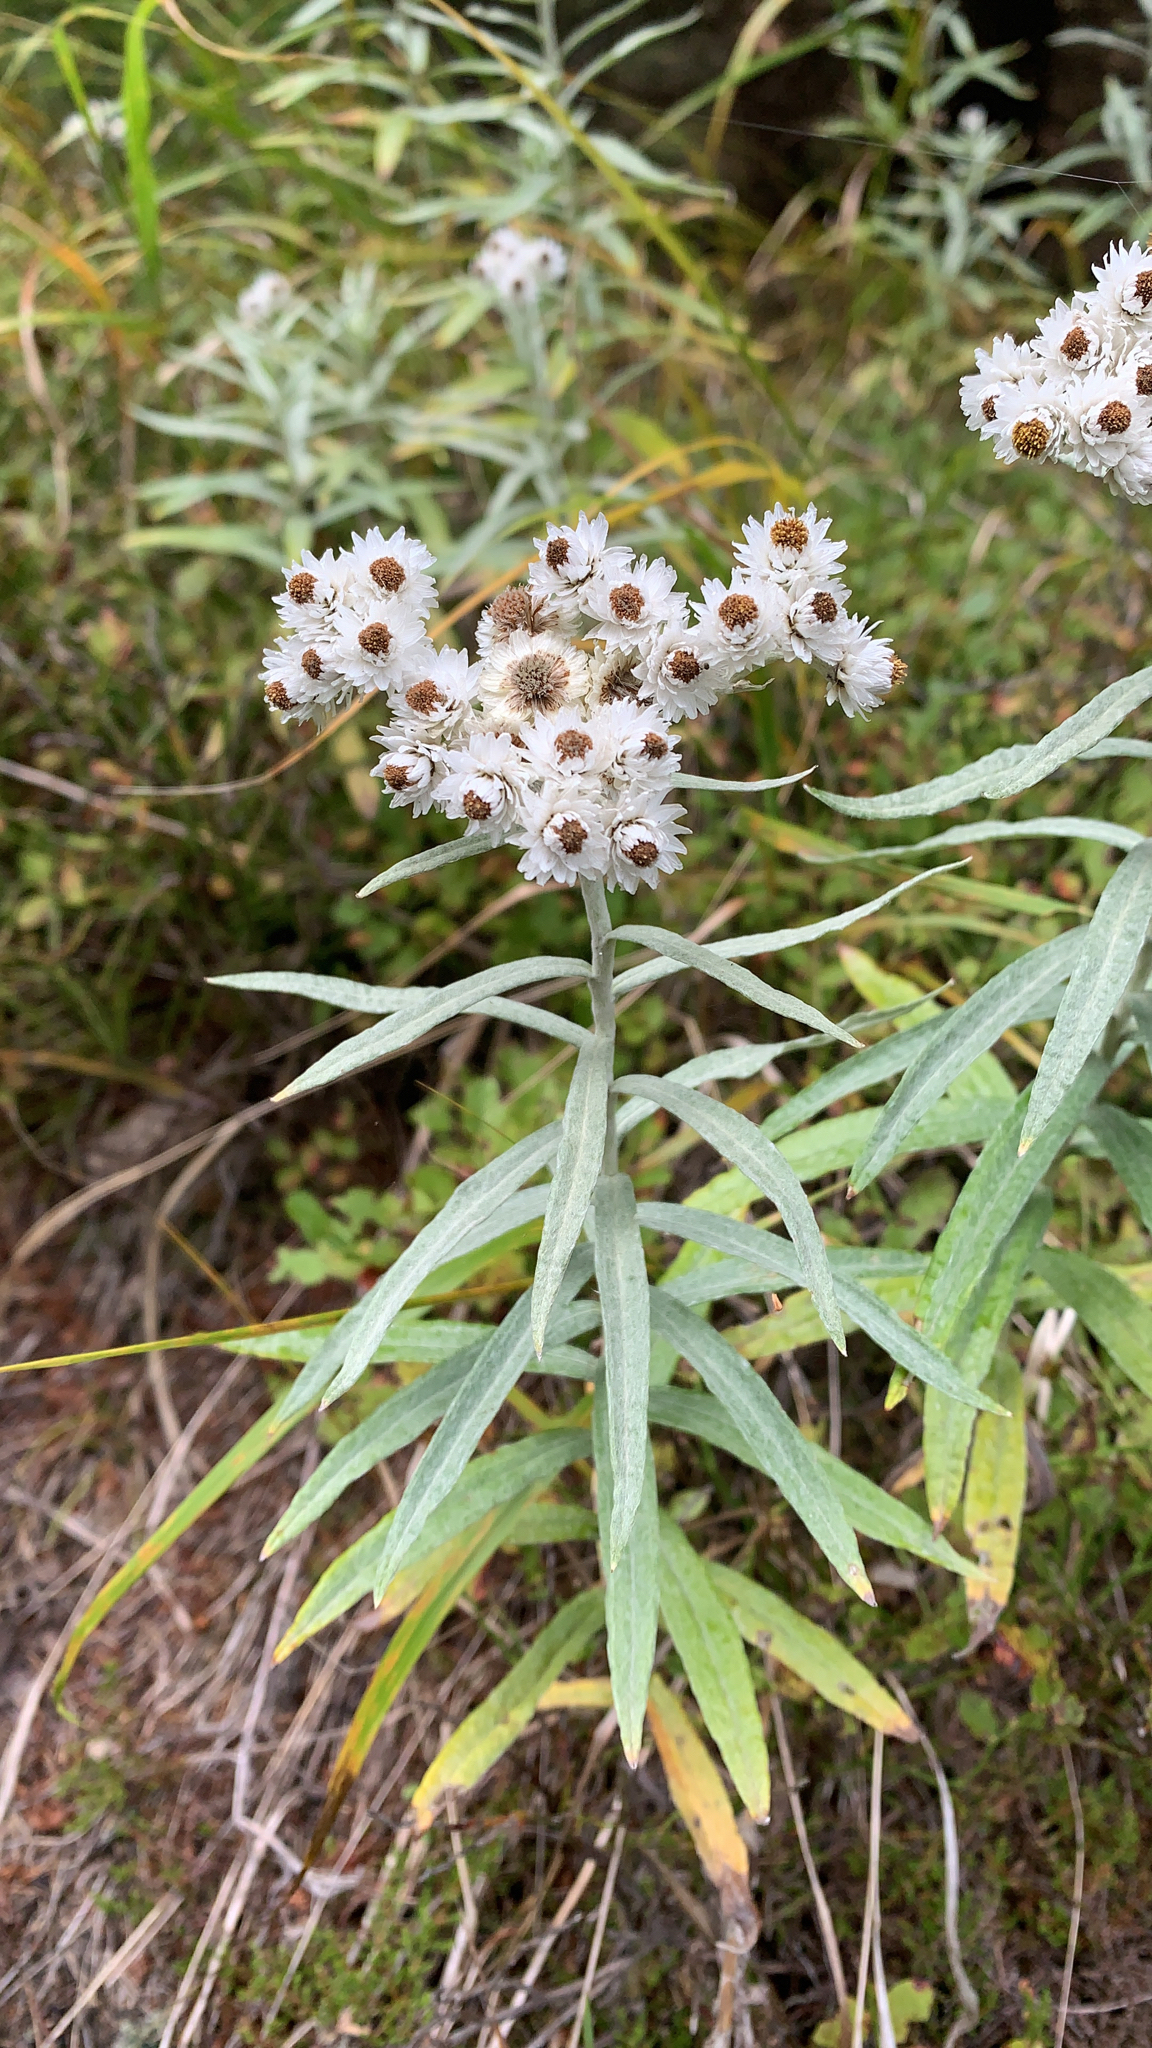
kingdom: Plantae
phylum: Tracheophyta
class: Magnoliopsida
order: Asterales
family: Asteraceae
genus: Anaphalis
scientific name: Anaphalis margaritacea
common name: Pearly everlasting
